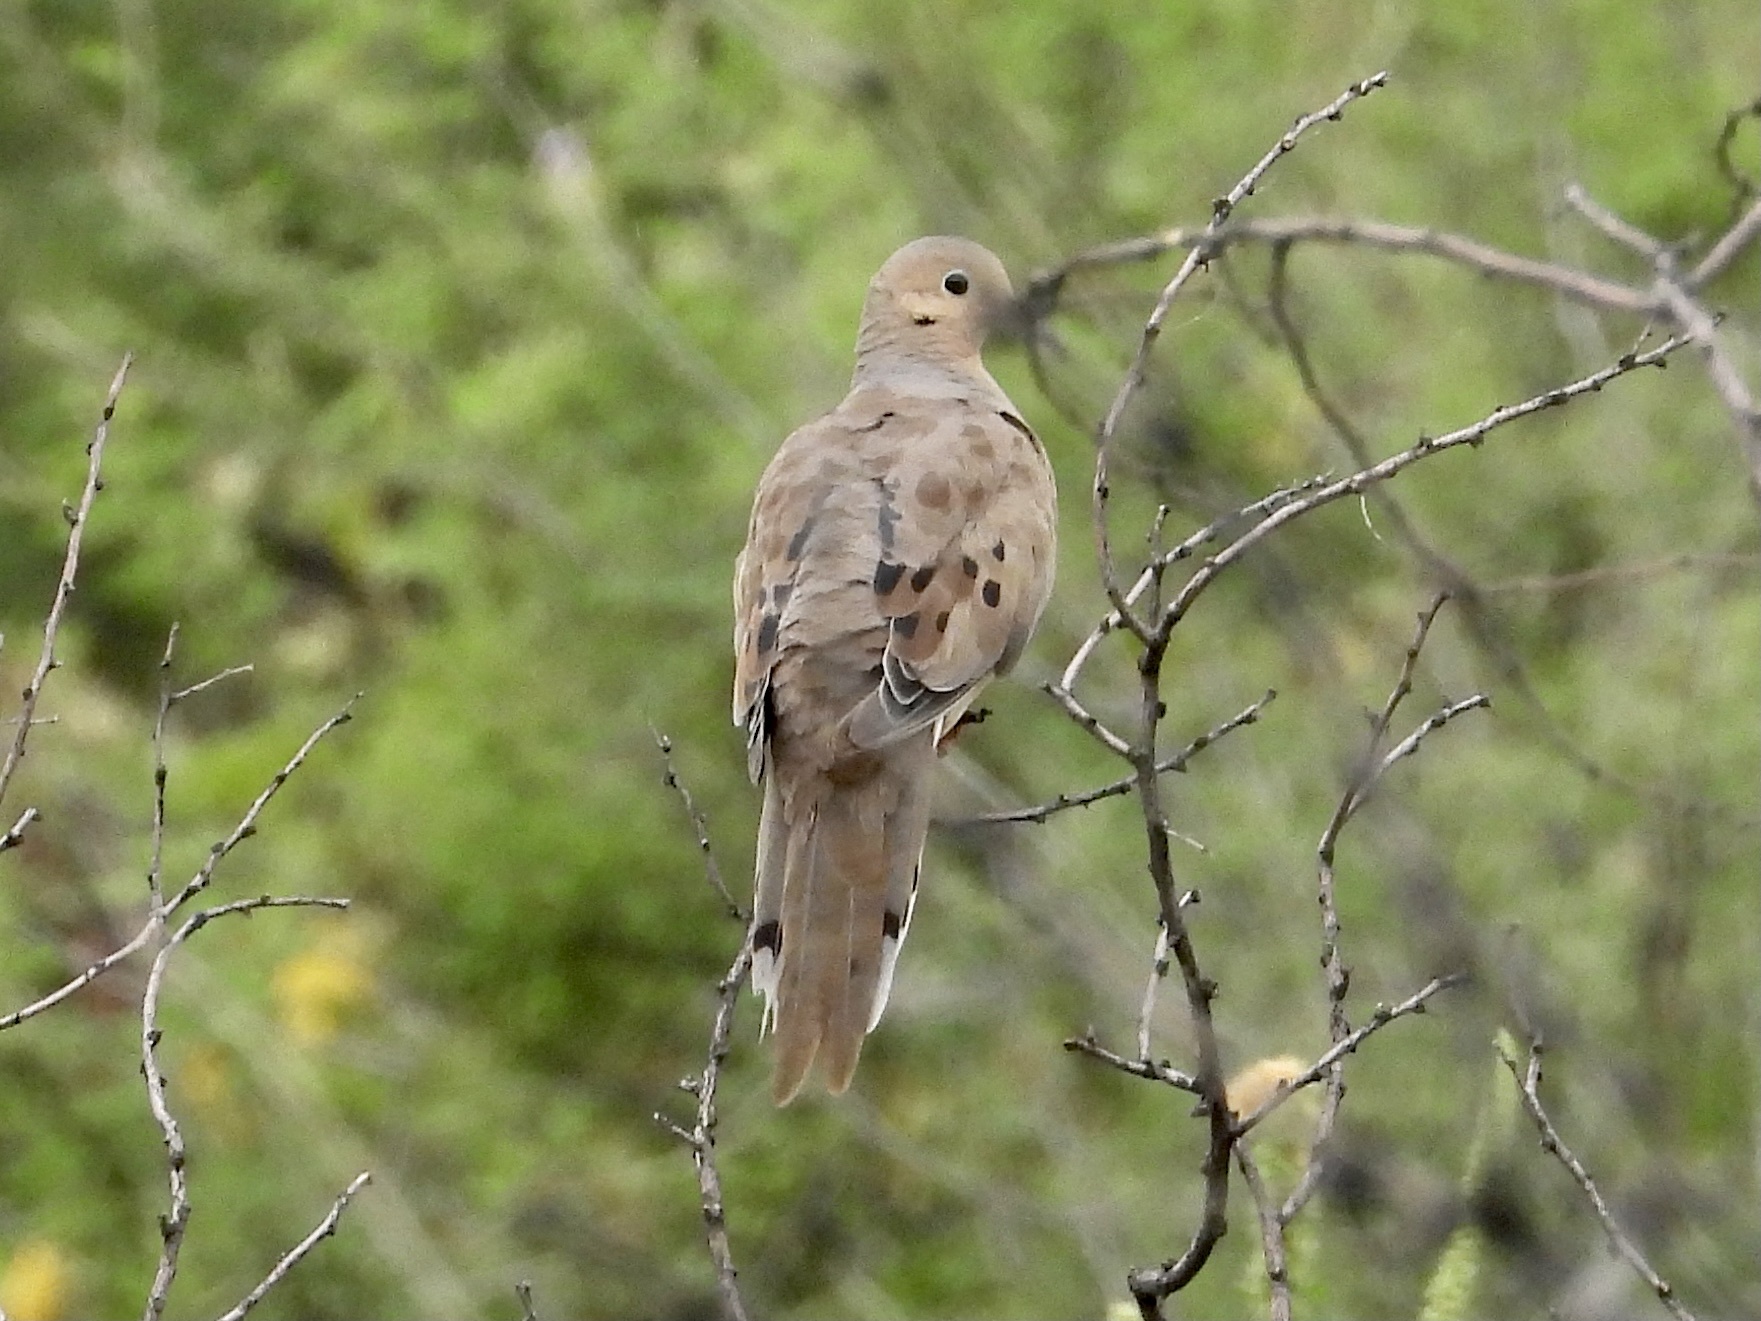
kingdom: Animalia
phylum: Chordata
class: Aves
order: Columbiformes
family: Columbidae
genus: Zenaida
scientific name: Zenaida macroura
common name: Mourning dove
